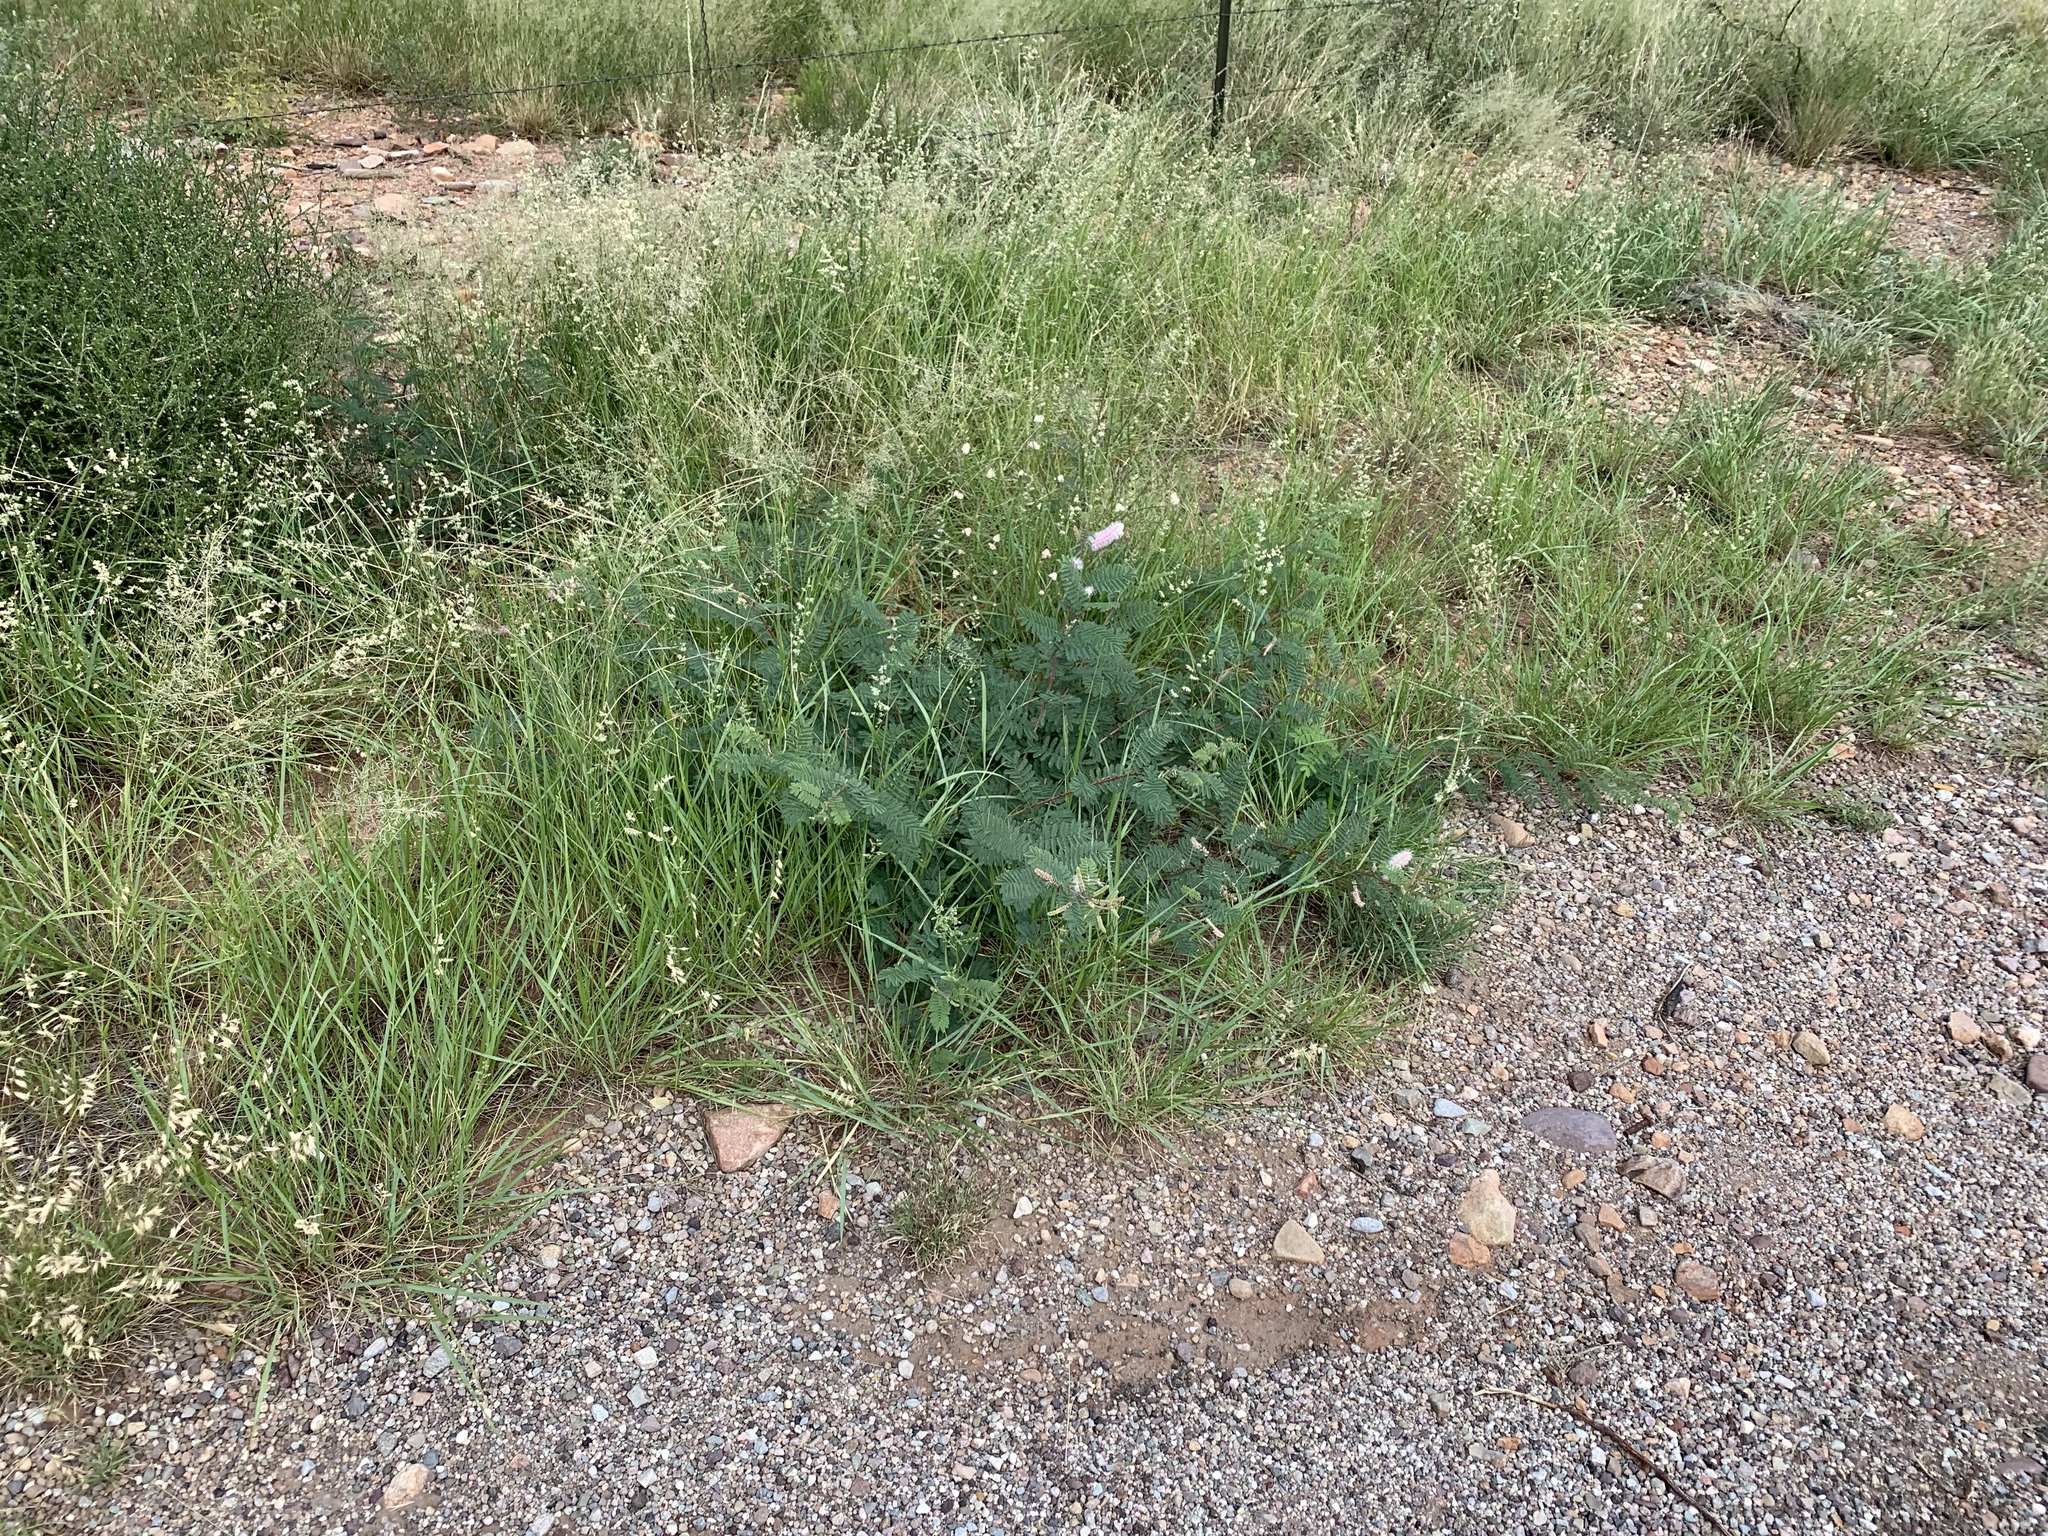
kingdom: Plantae
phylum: Tracheophyta
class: Magnoliopsida
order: Fabales
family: Fabaceae
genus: Mimosa
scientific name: Mimosa dysocarpa
